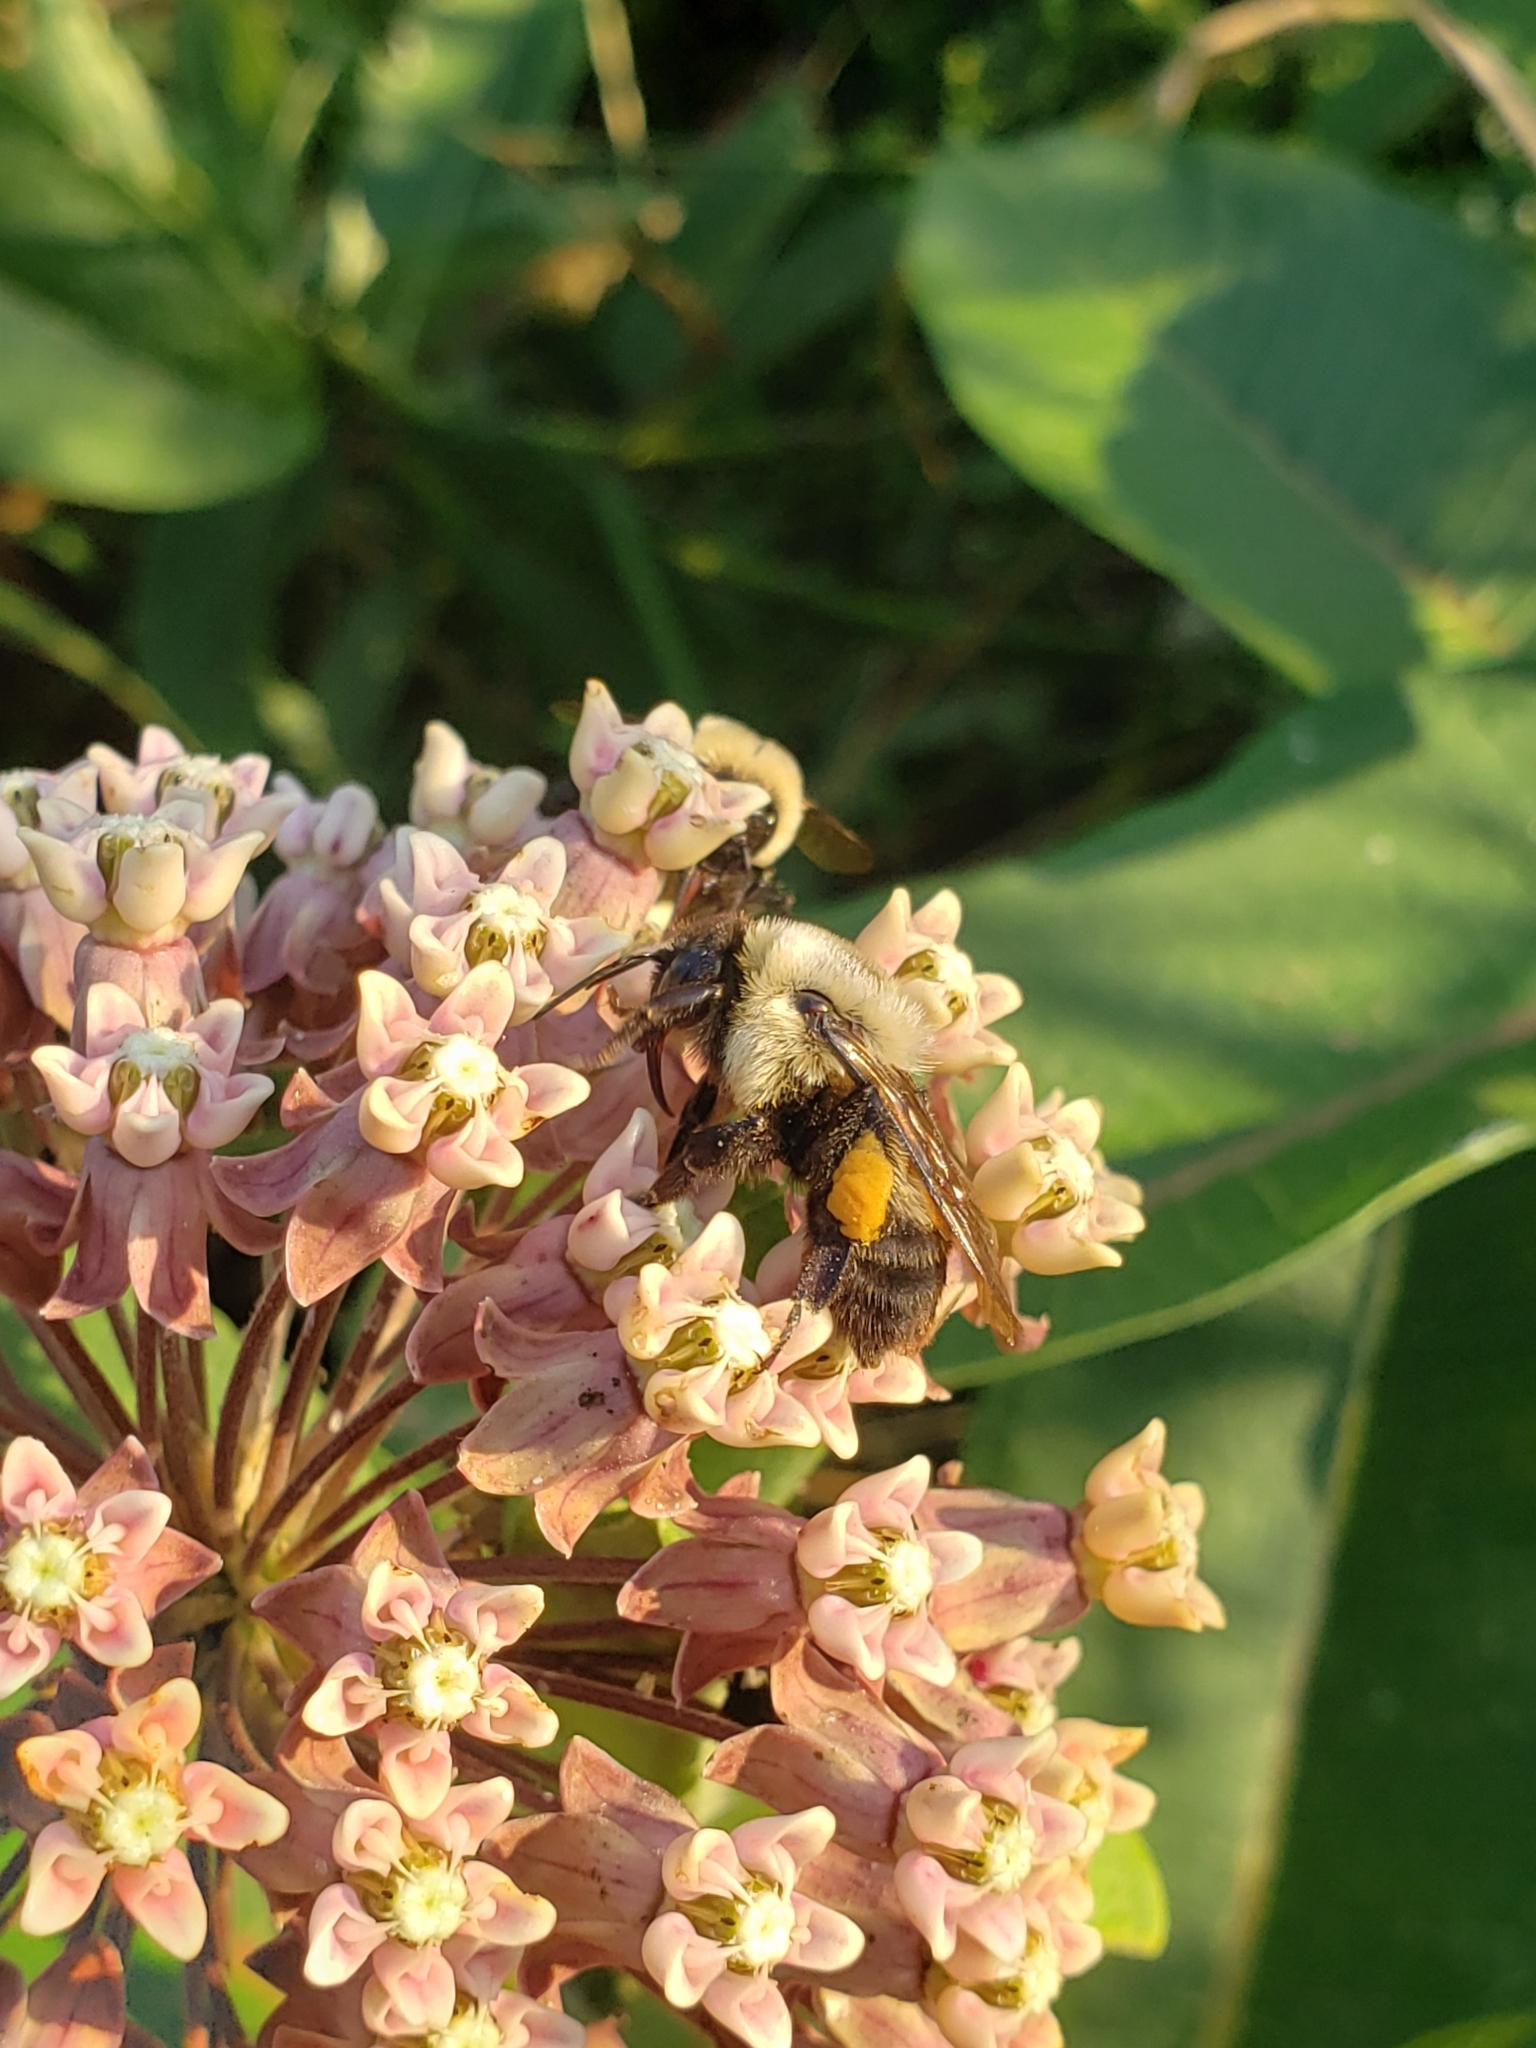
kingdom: Animalia
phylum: Arthropoda
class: Insecta
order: Hymenoptera
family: Apidae
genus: Bombus
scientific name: Bombus griseocollis
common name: Brown-belted bumble bee
